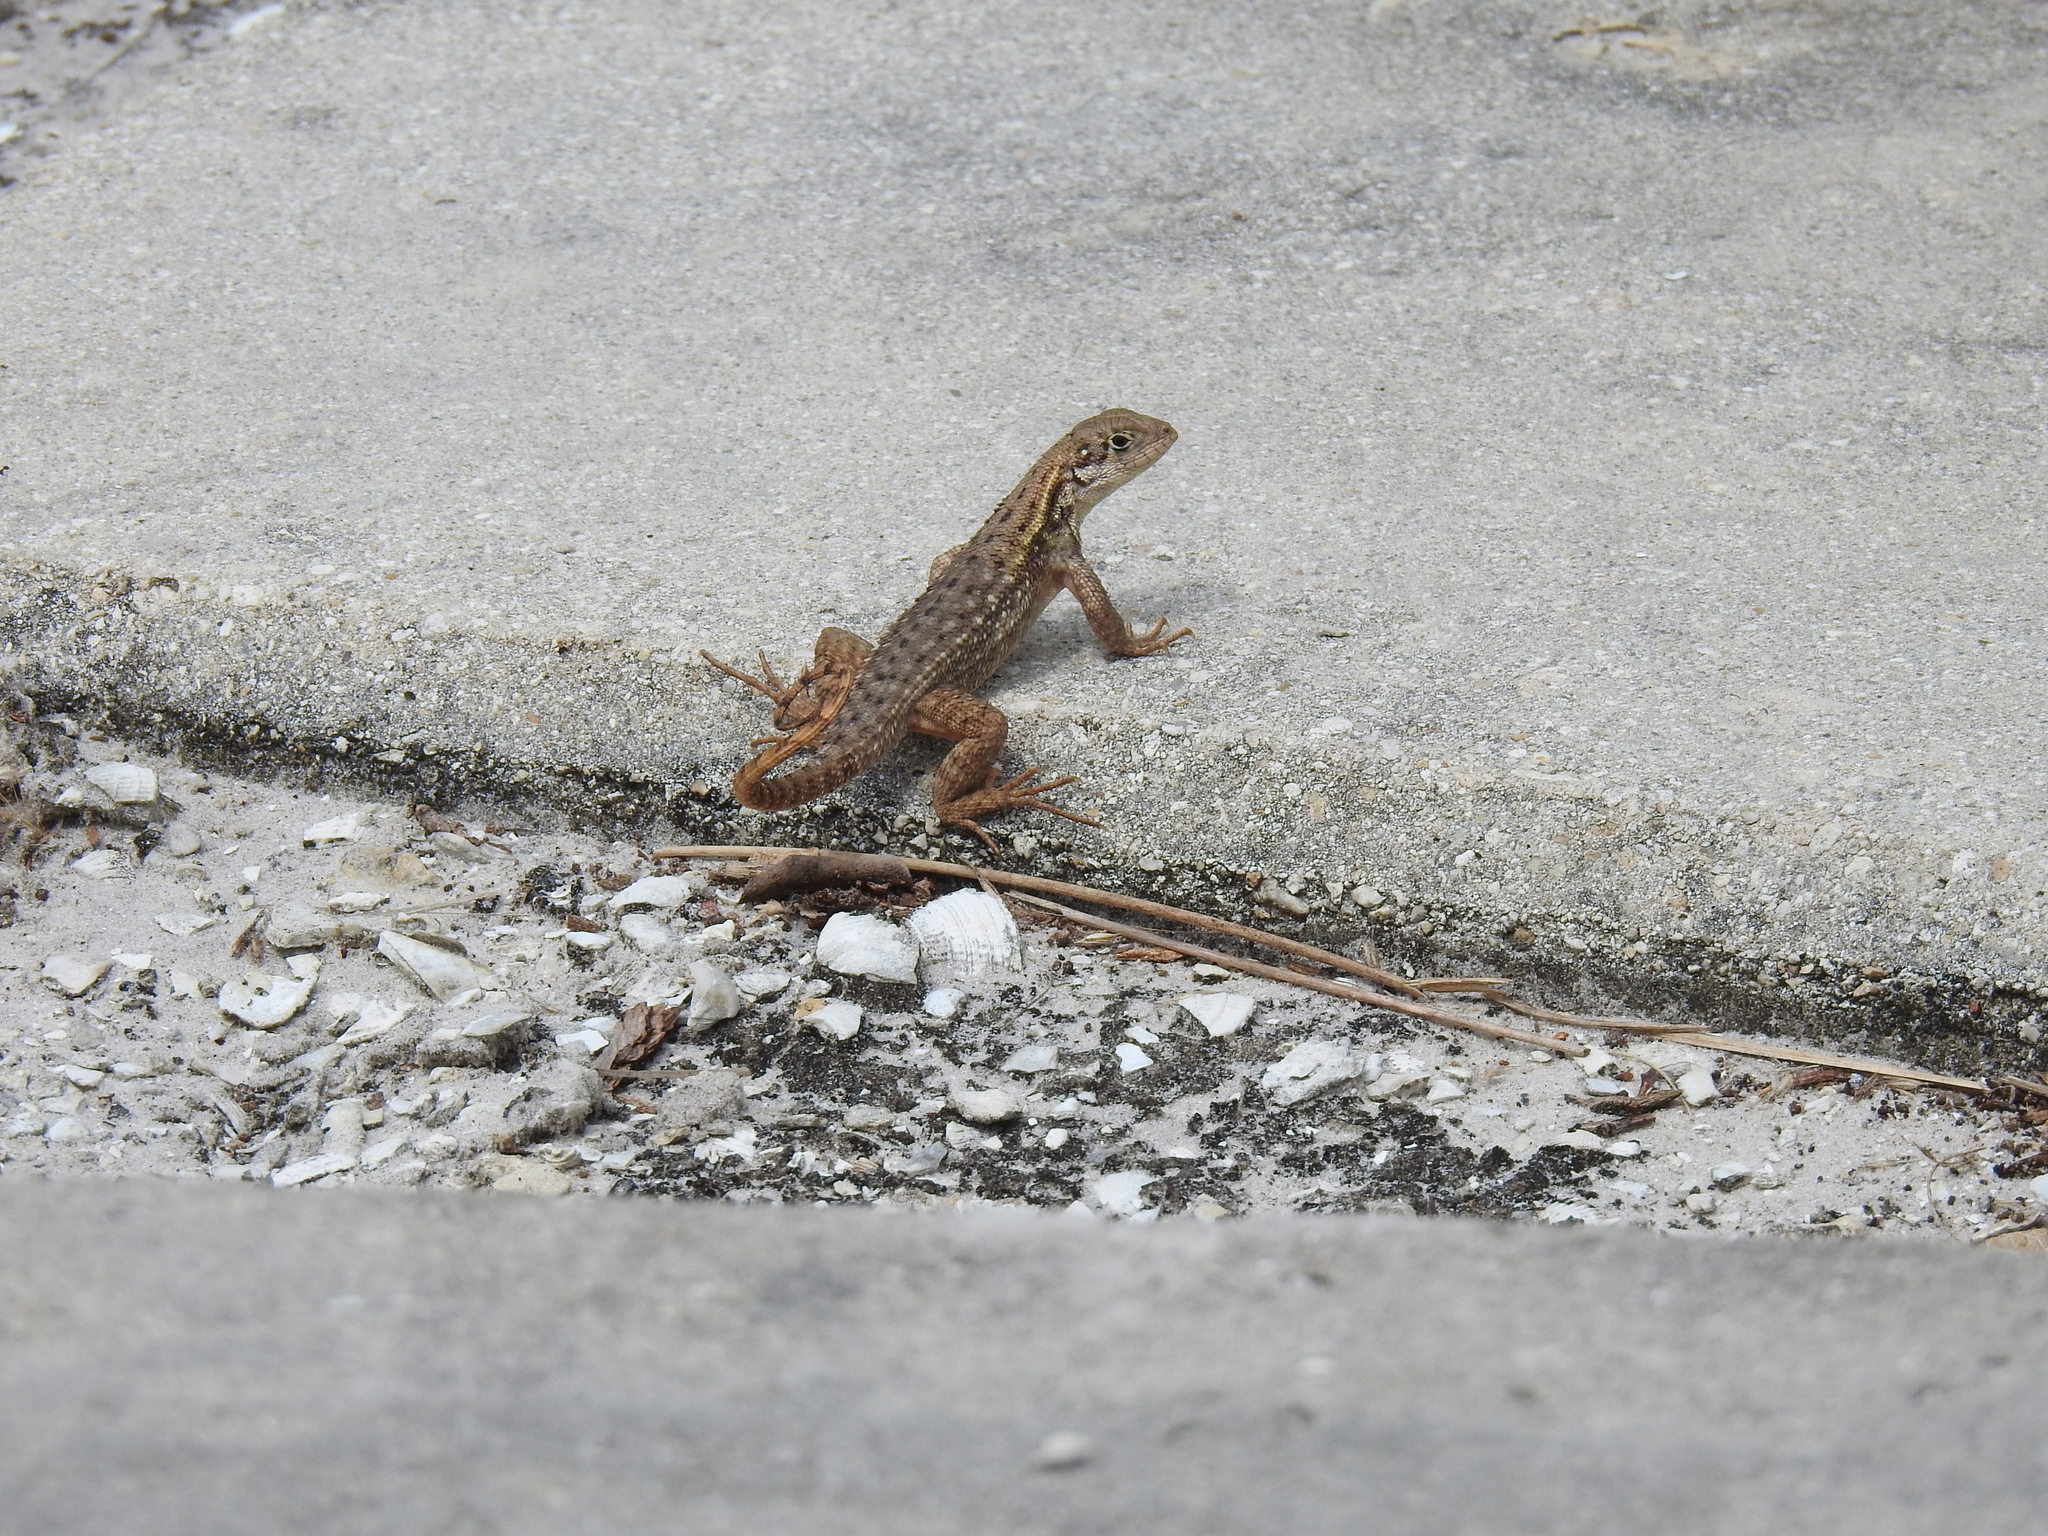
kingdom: Animalia
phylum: Chordata
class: Squamata
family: Leiocephalidae
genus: Leiocephalus
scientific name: Leiocephalus carinatus
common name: Northern curly-tailed lizard
